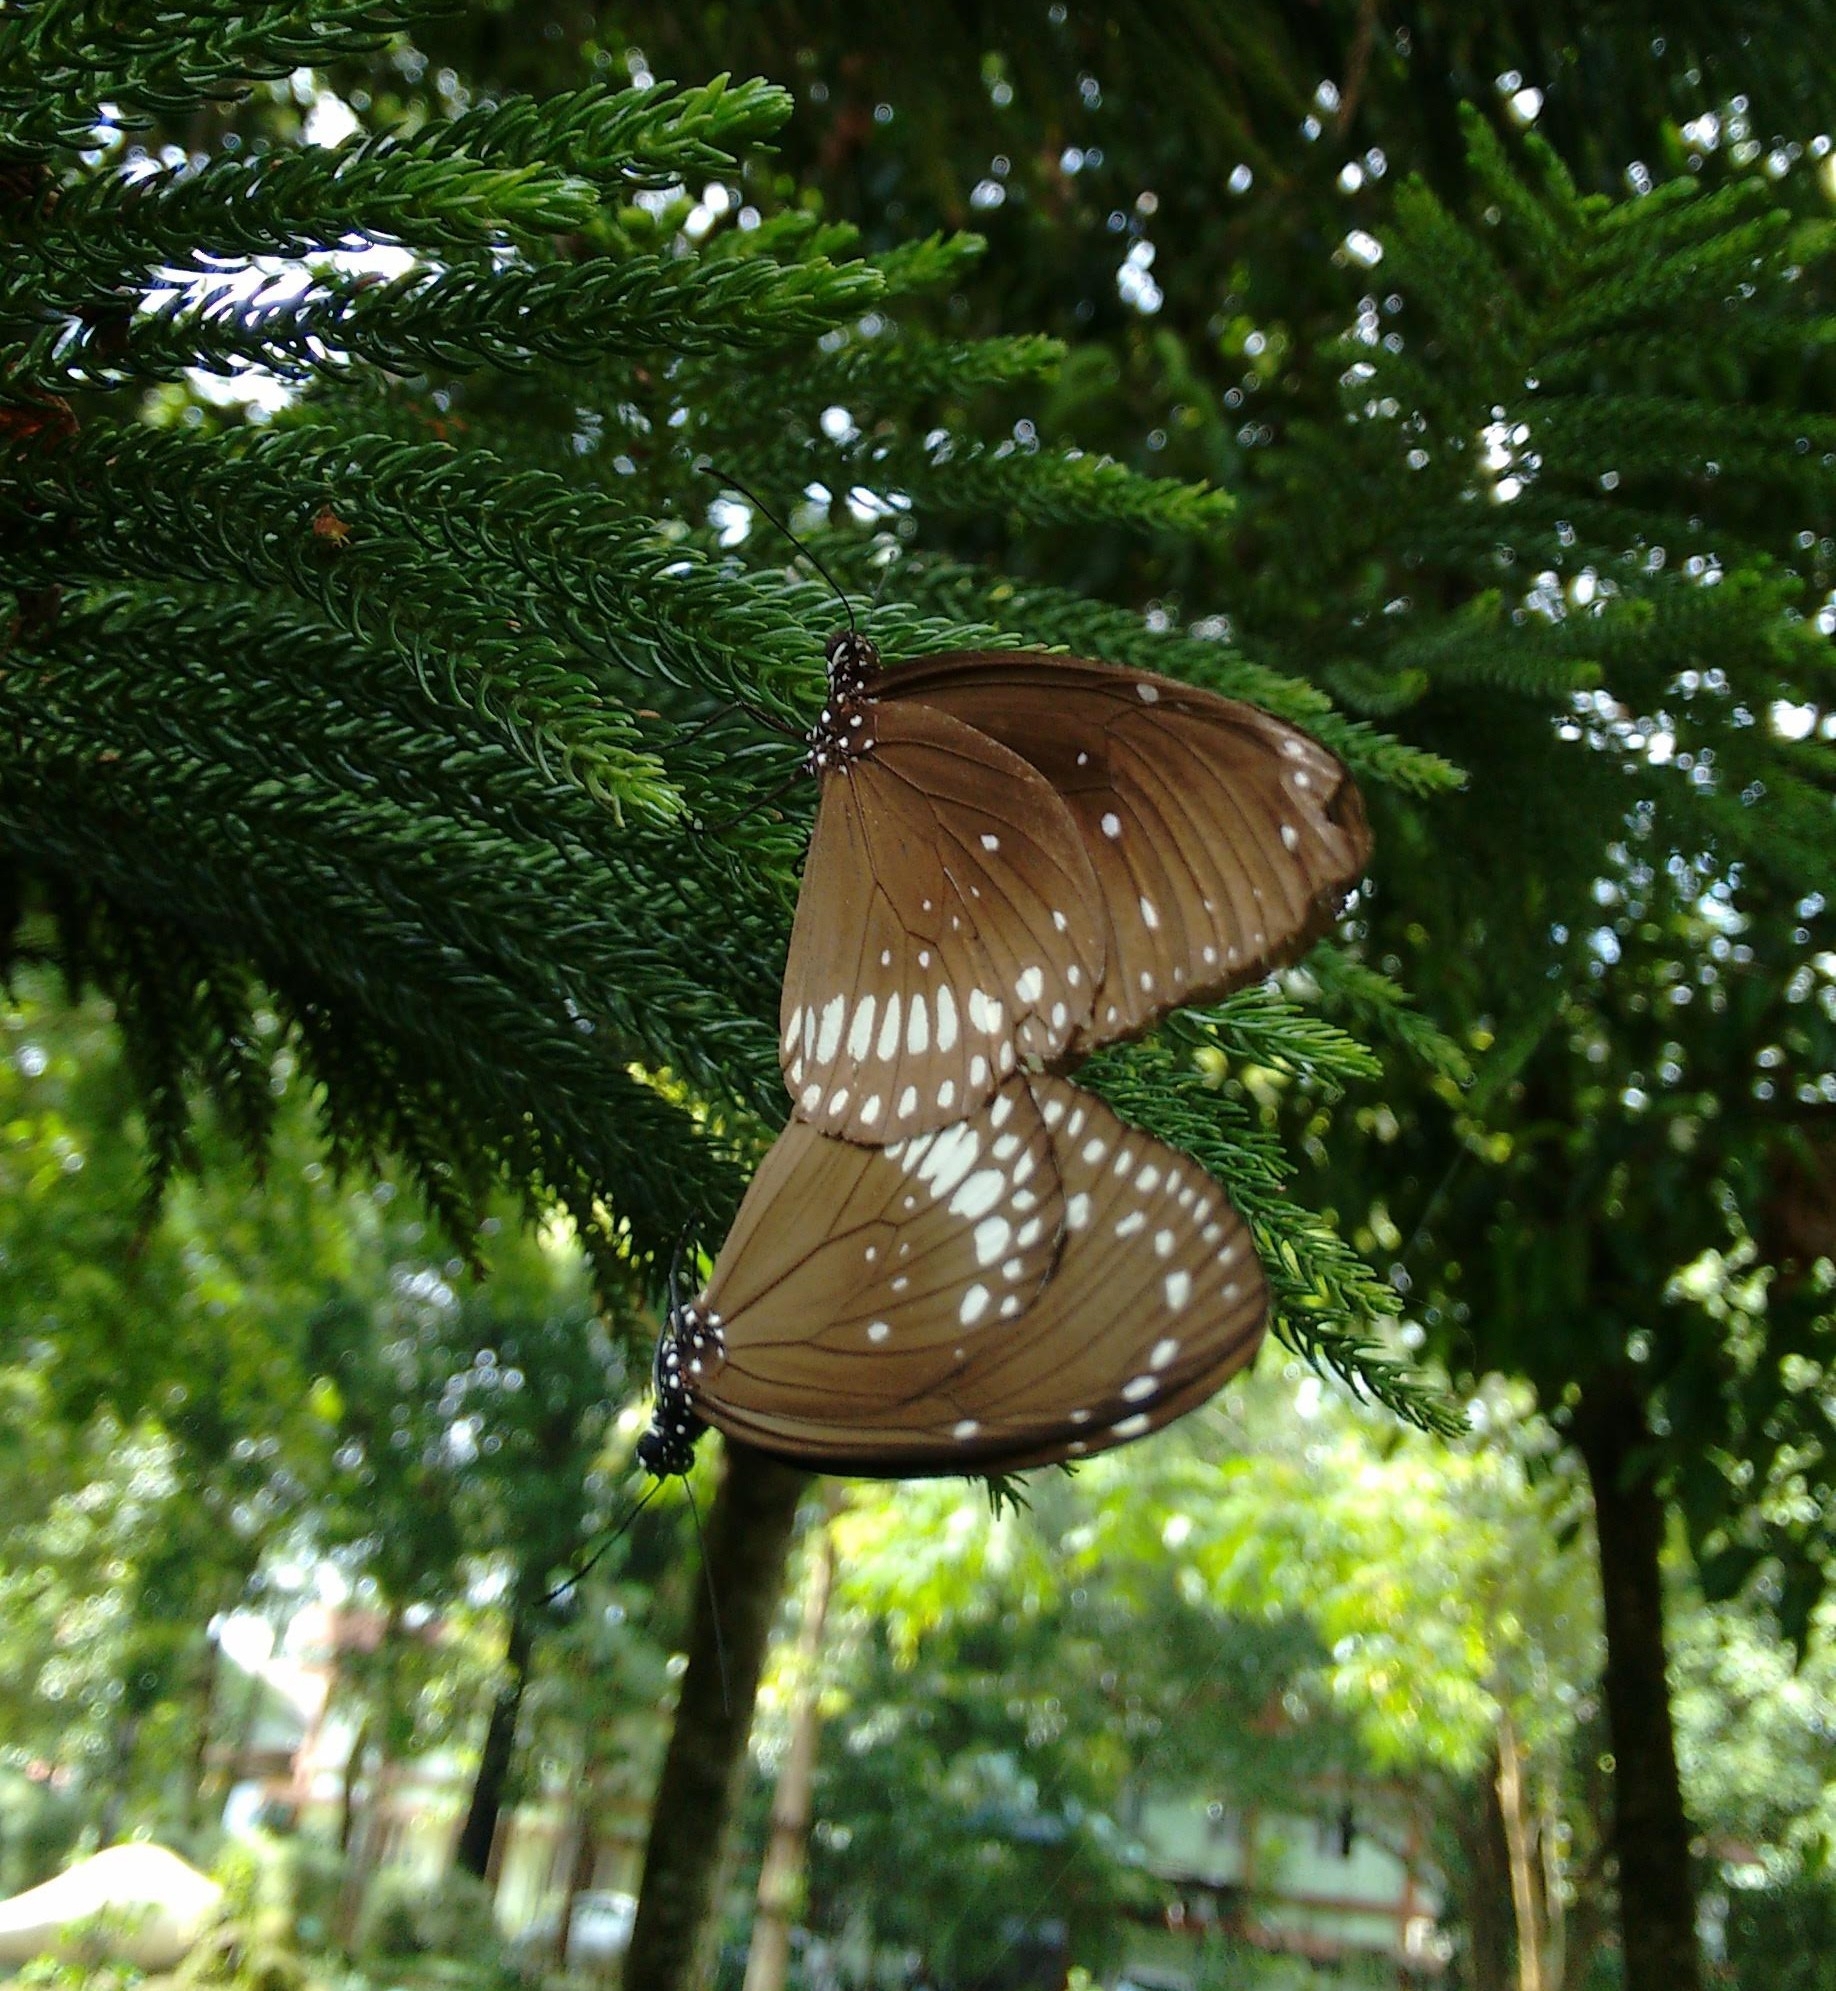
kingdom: Animalia
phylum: Arthropoda
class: Insecta
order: Lepidoptera
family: Nymphalidae
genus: Euploea
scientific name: Euploea core
